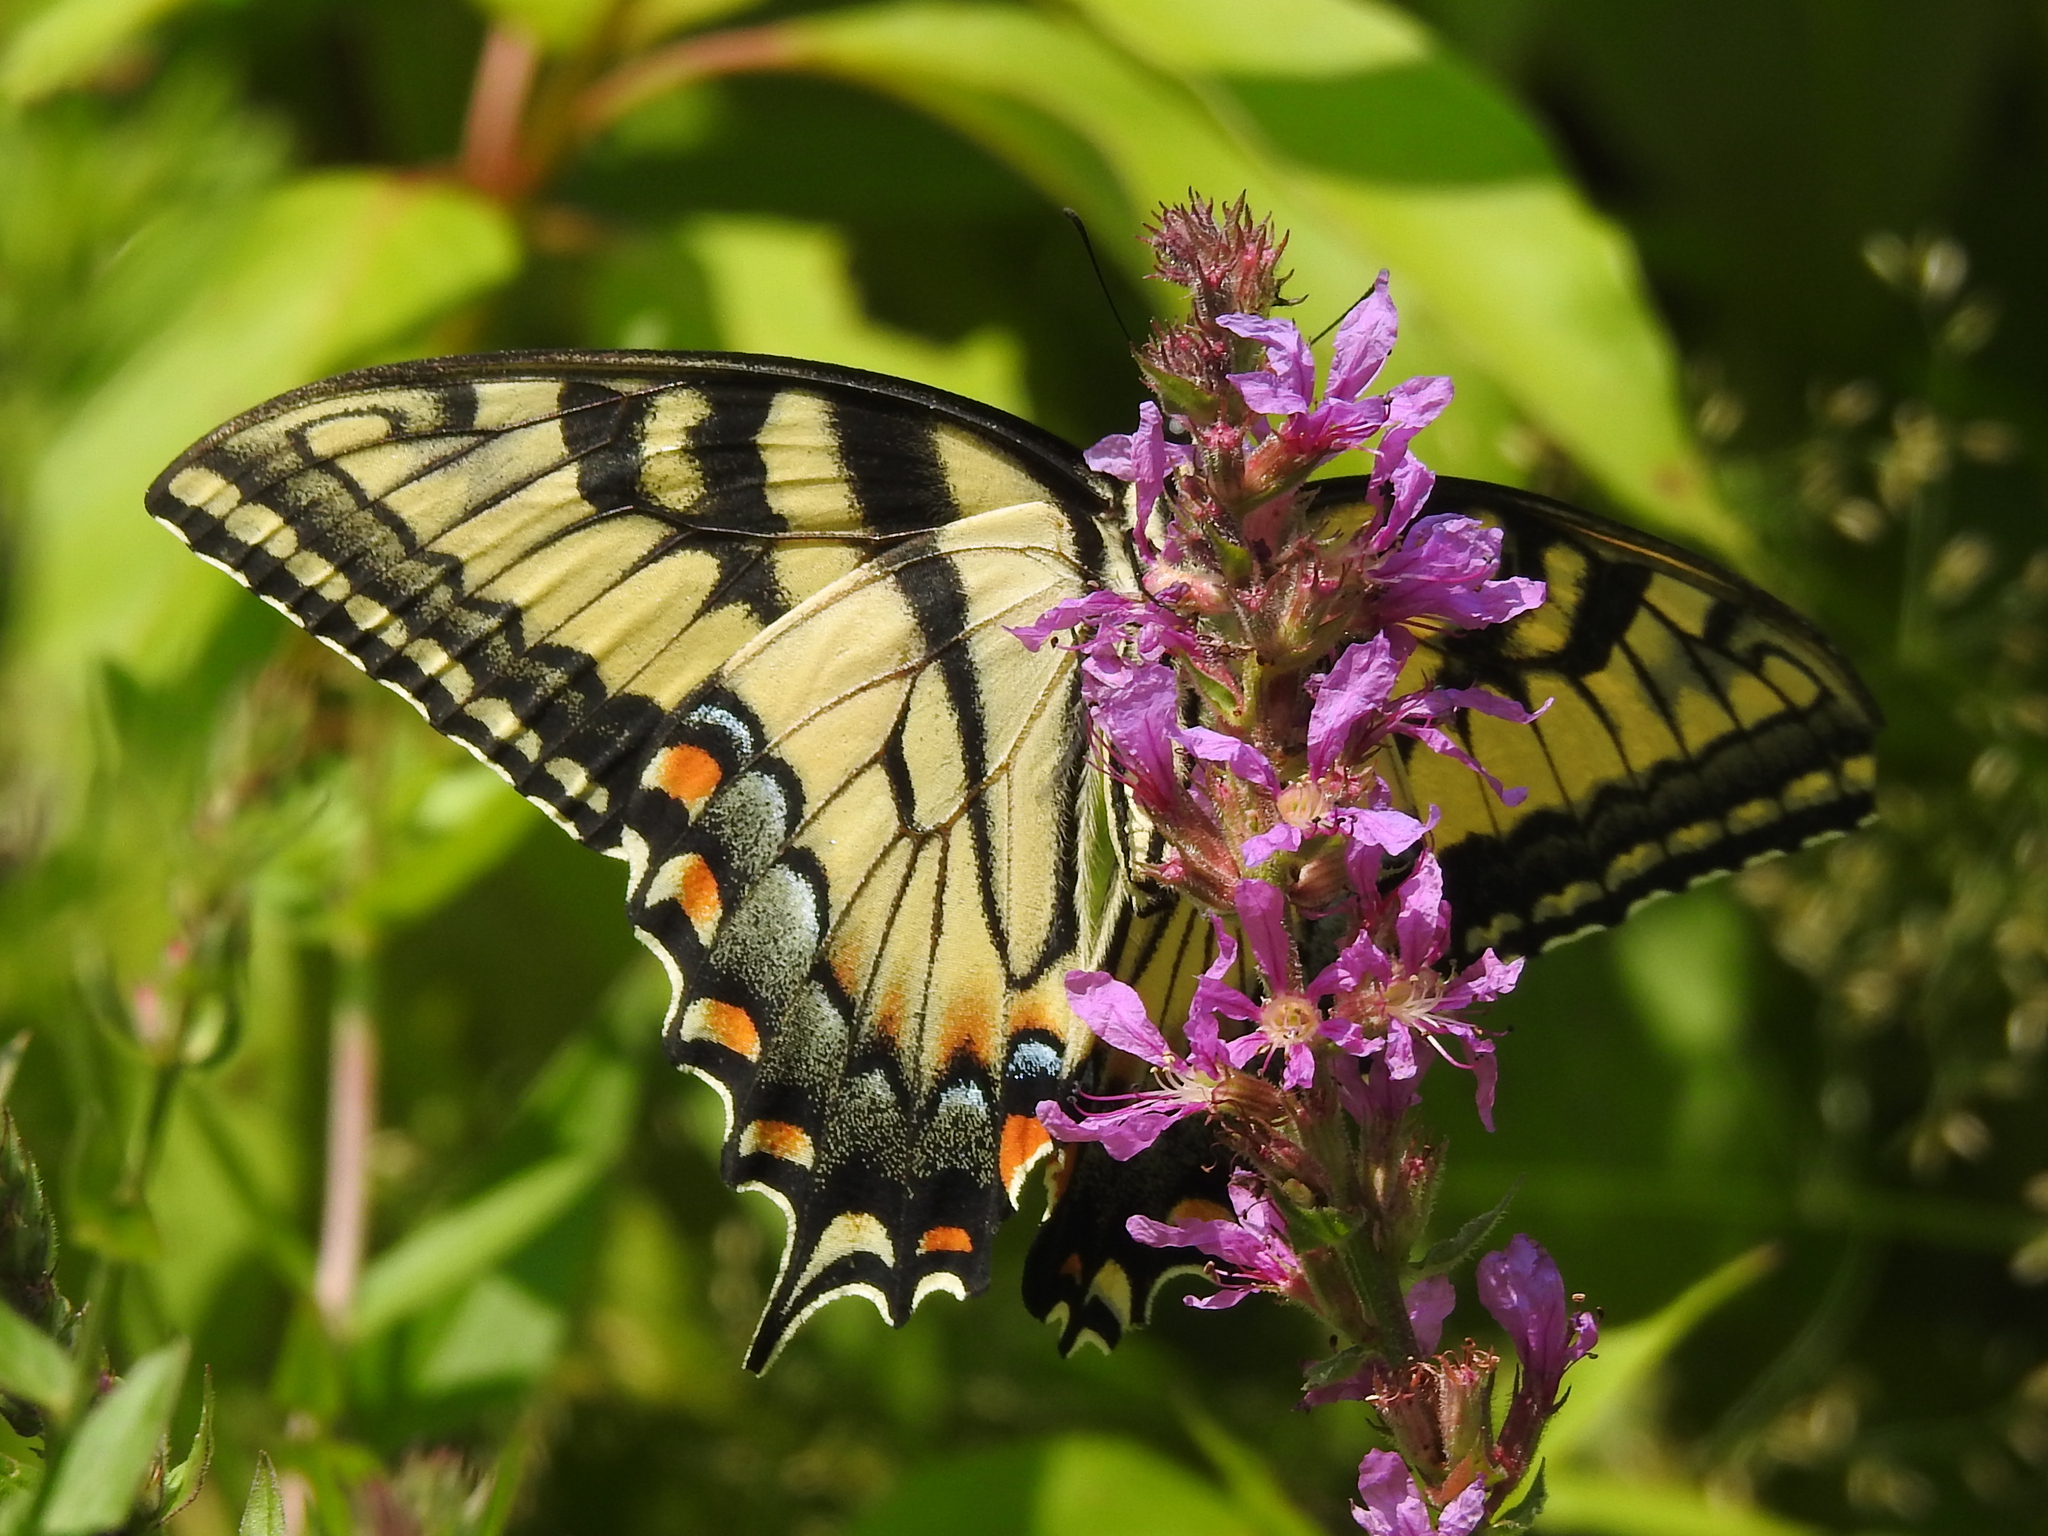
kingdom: Animalia
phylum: Arthropoda
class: Insecta
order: Lepidoptera
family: Papilionidae
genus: Papilio
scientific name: Papilio glaucus
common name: Tiger swallowtail
